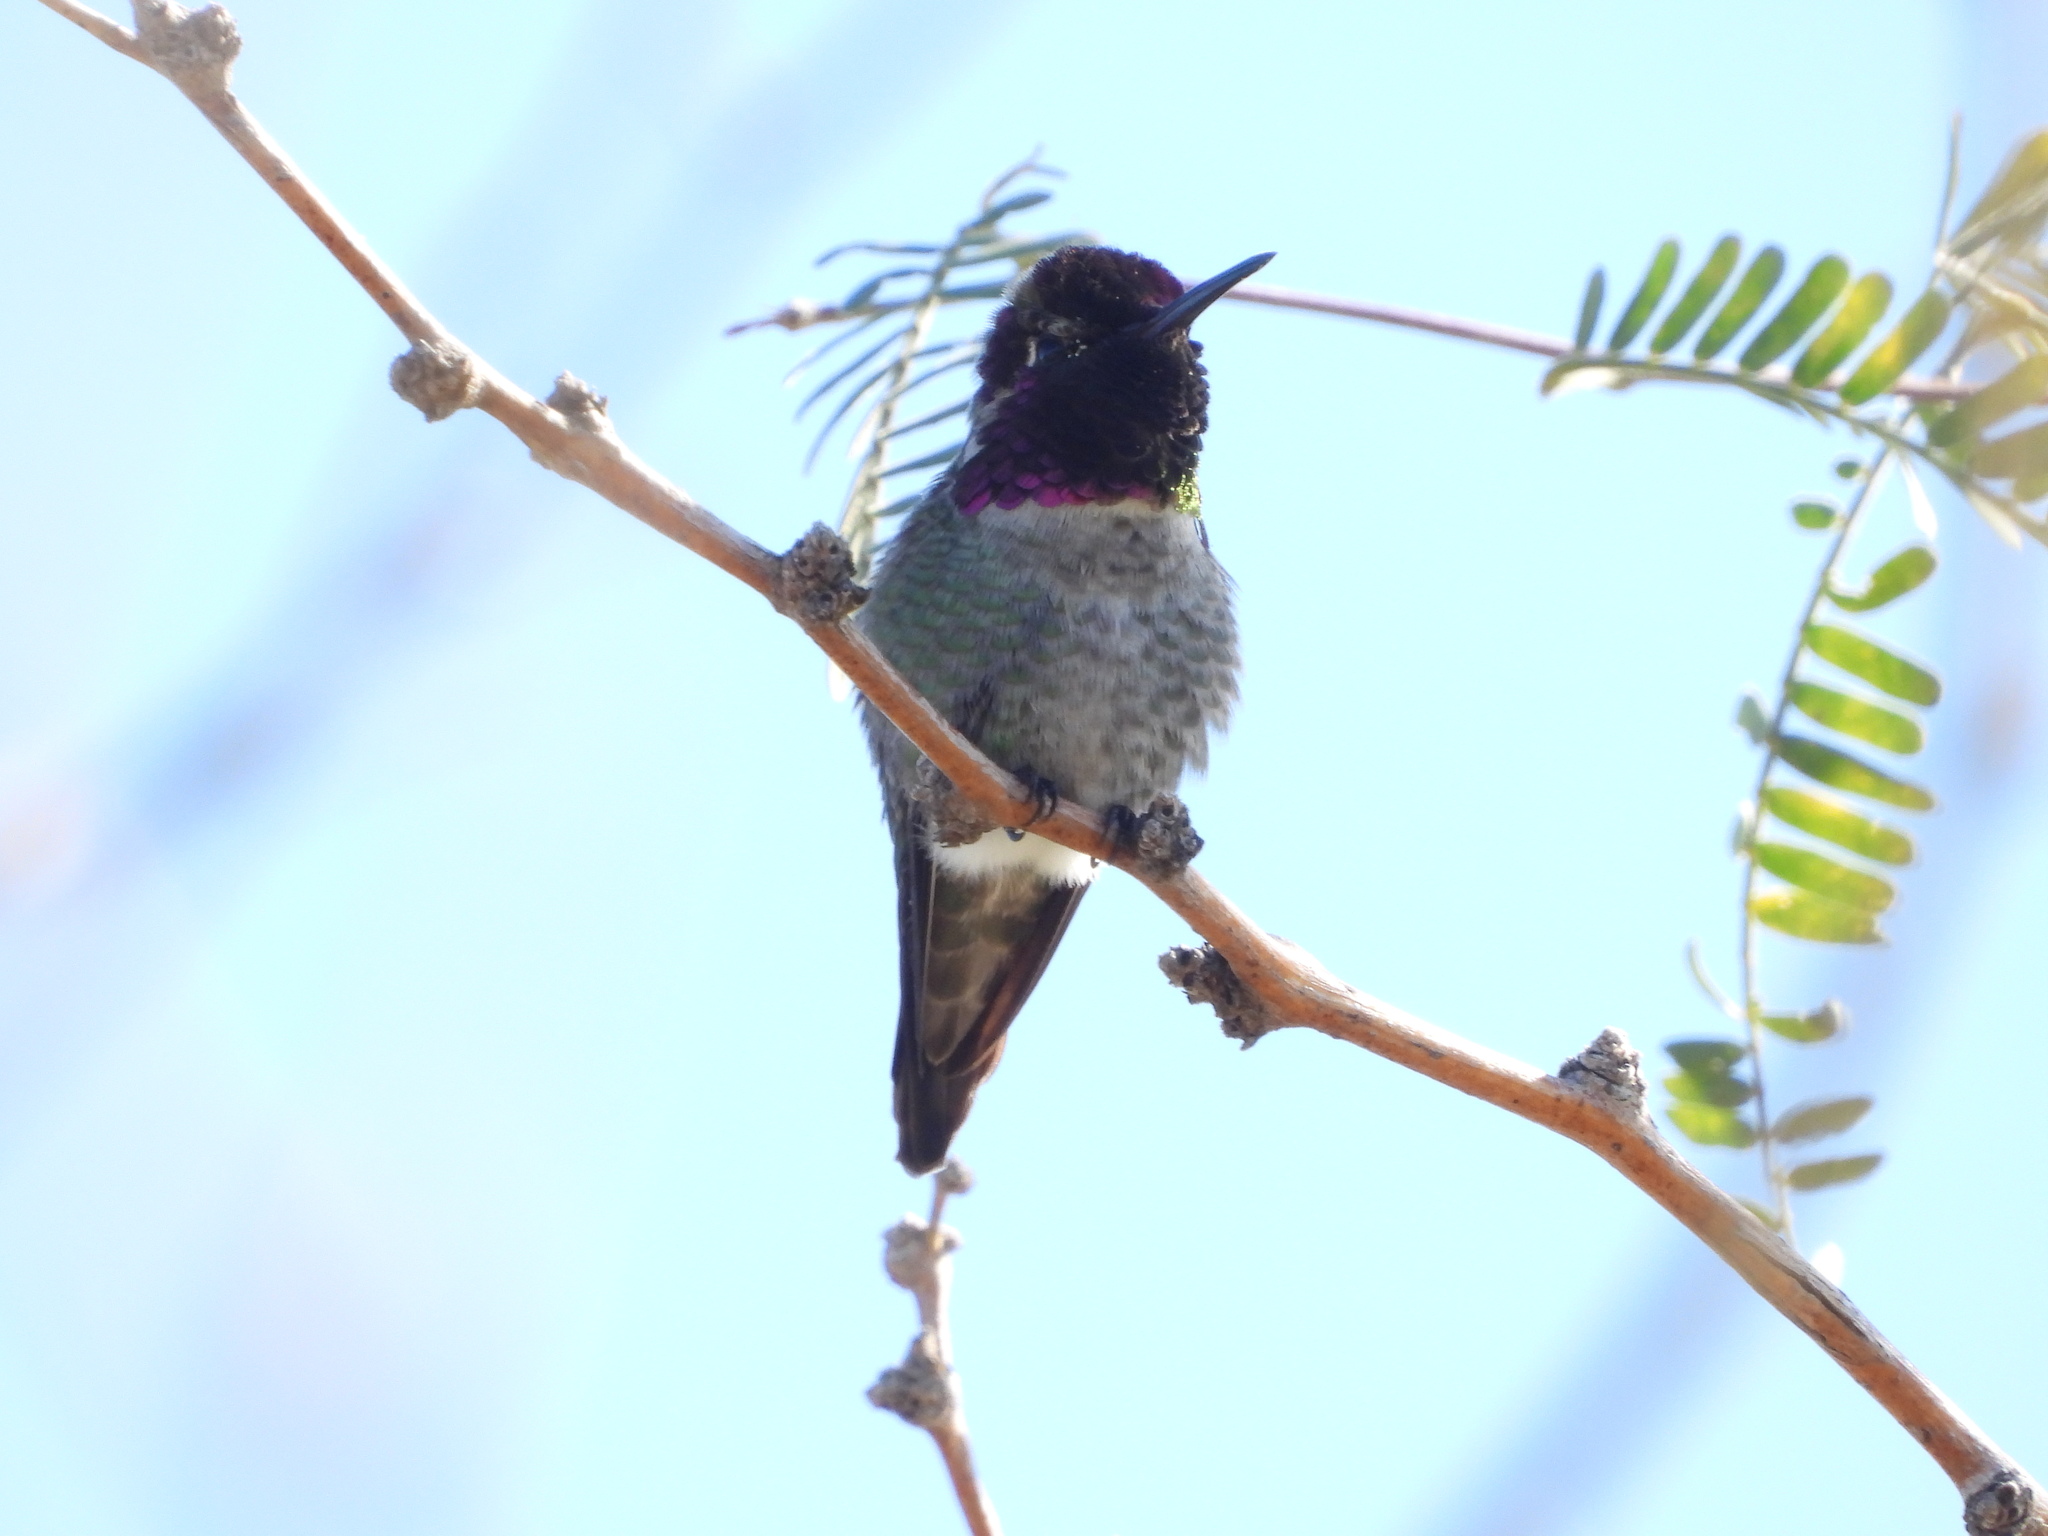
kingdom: Animalia
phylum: Chordata
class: Aves
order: Apodiformes
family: Trochilidae
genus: Calypte
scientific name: Calypte anna
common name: Anna's hummingbird
